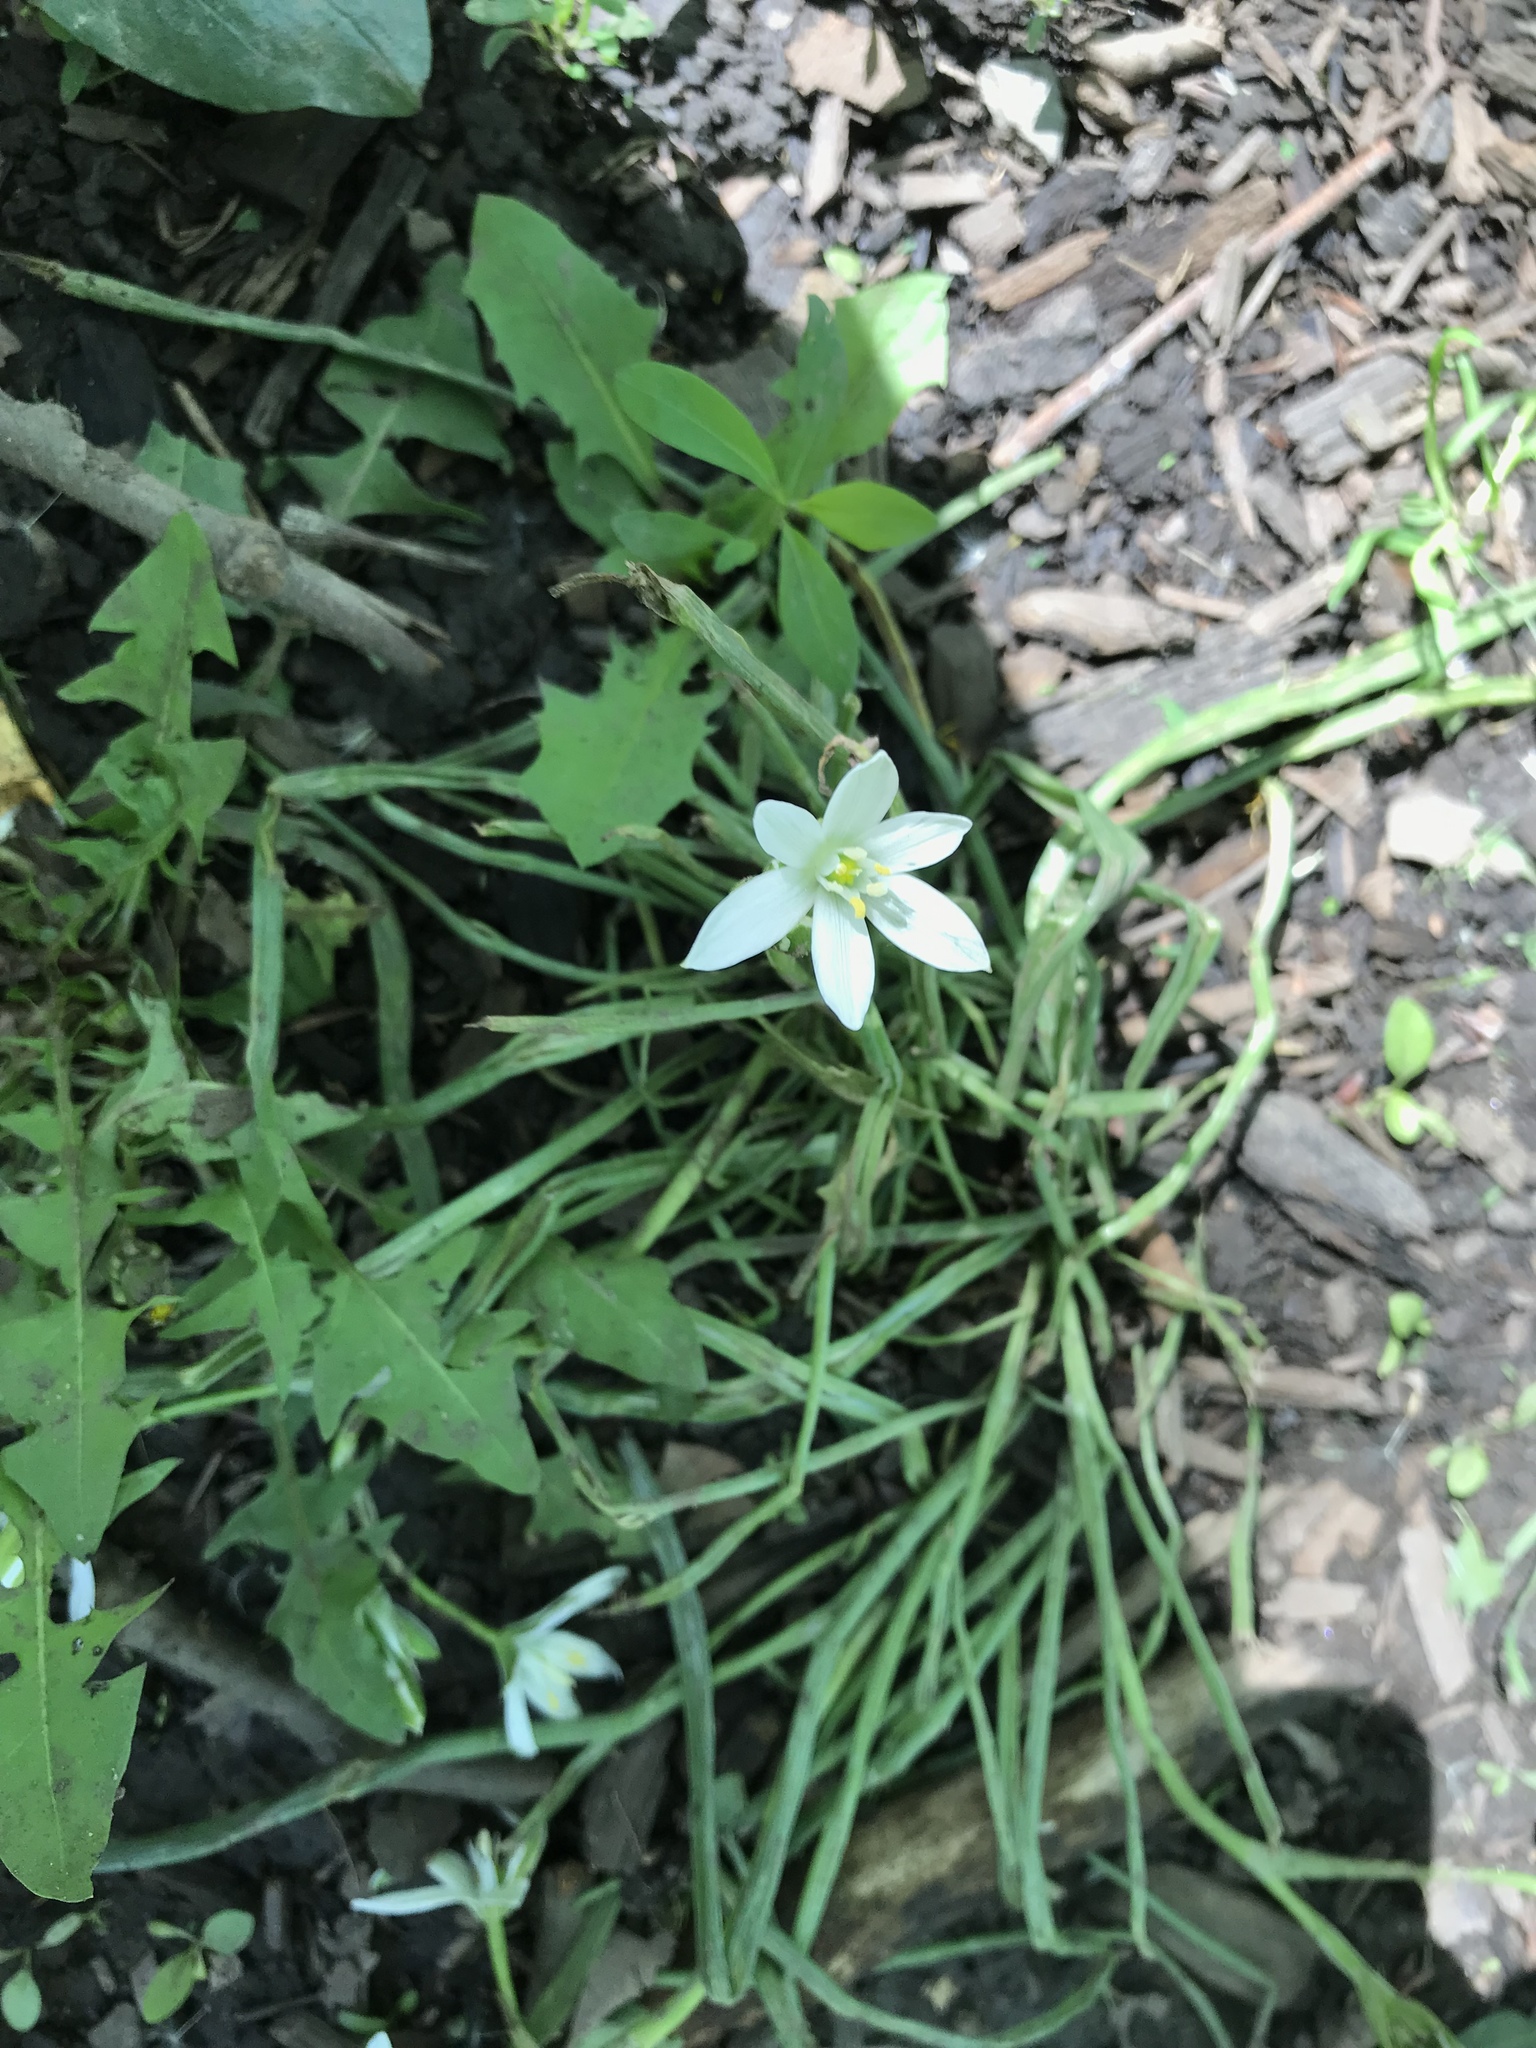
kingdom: Plantae
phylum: Tracheophyta
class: Liliopsida
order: Asparagales
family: Asparagaceae
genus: Ornithogalum
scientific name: Ornithogalum umbellatum
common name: Garden star-of-bethlehem
